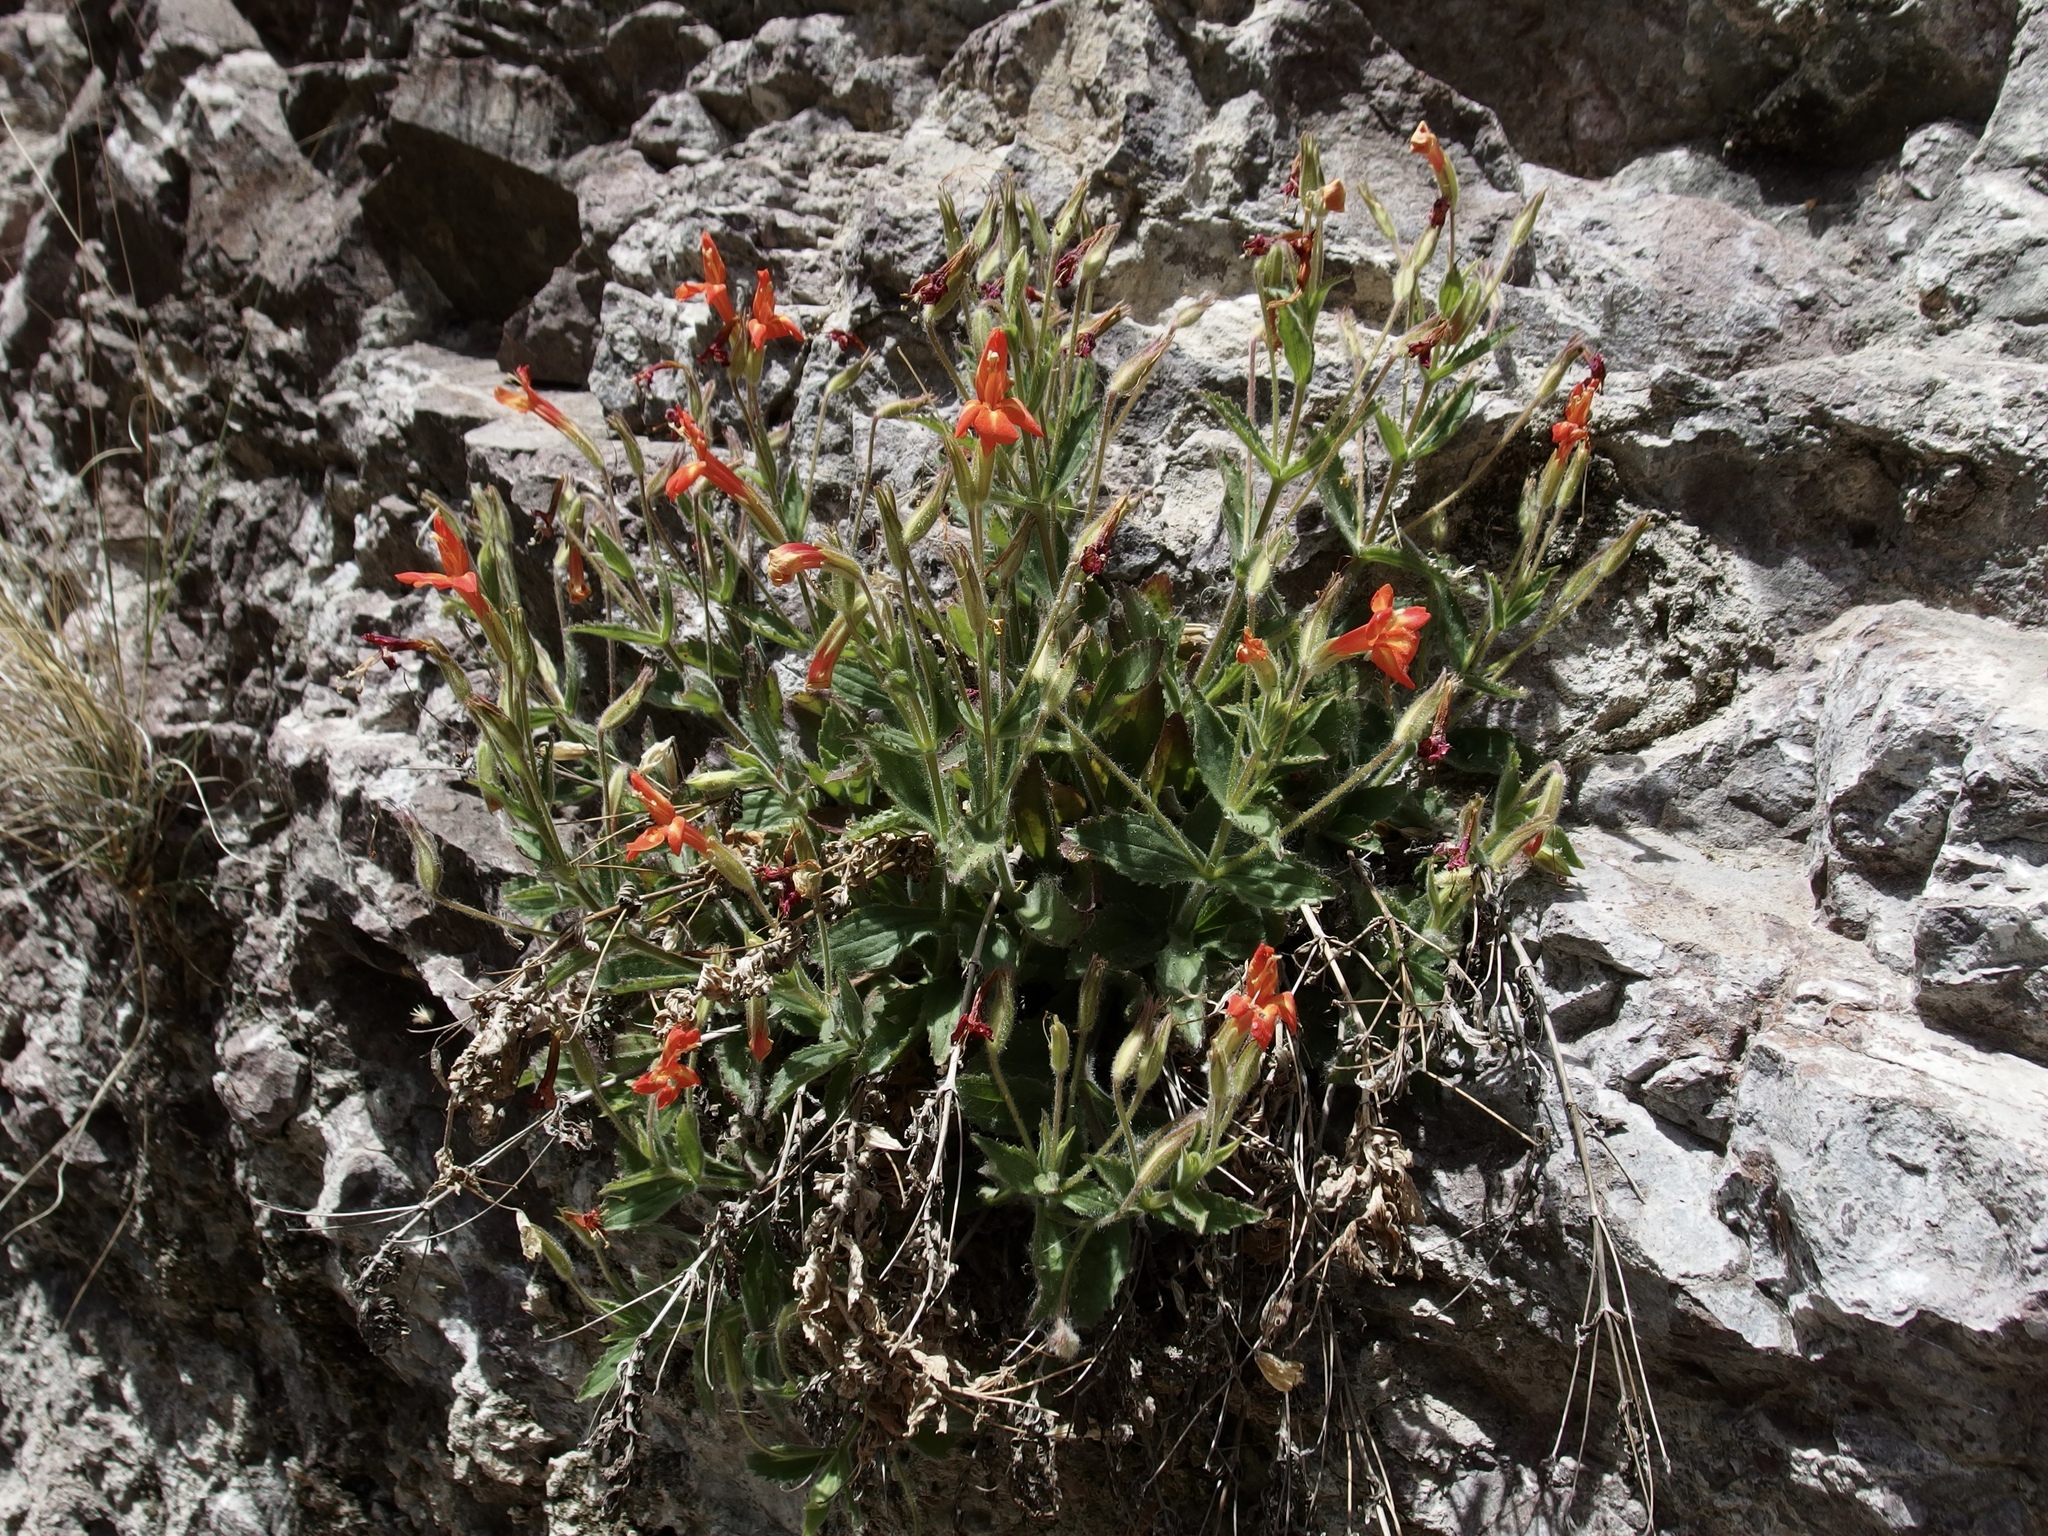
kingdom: Plantae
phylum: Tracheophyta
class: Magnoliopsida
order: Lamiales
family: Phrymaceae
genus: Erythranthe
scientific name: Erythranthe verbenacea
